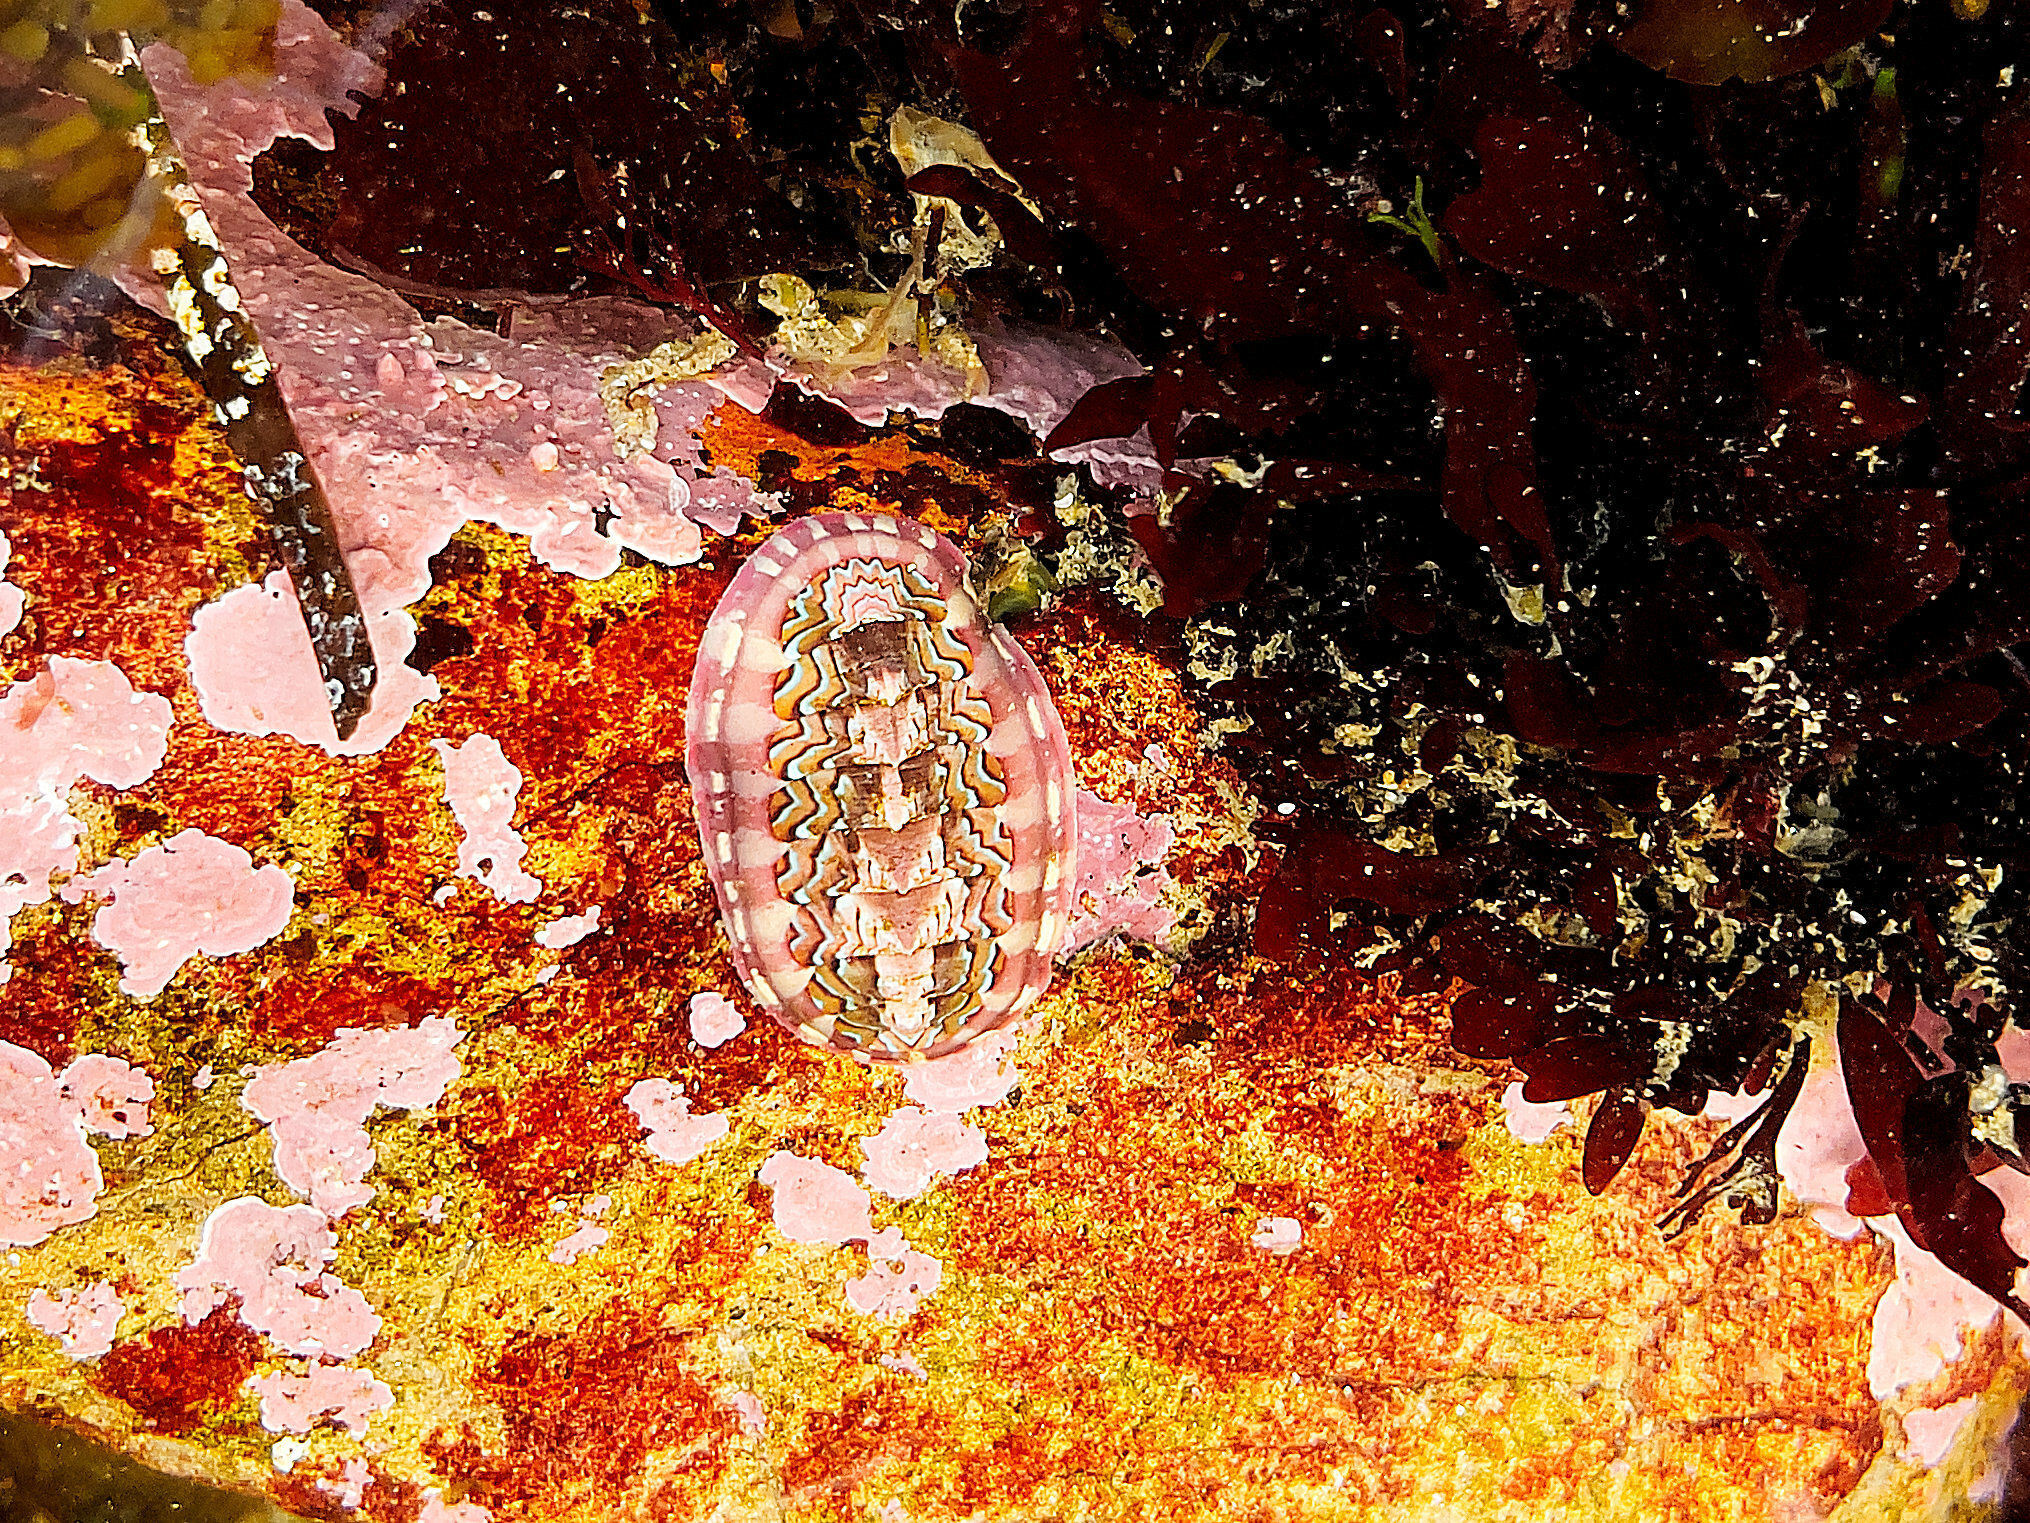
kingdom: Animalia
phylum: Mollusca
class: Polyplacophora
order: Chitonida
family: Tonicellidae
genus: Tonicella
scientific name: Tonicella lokii
